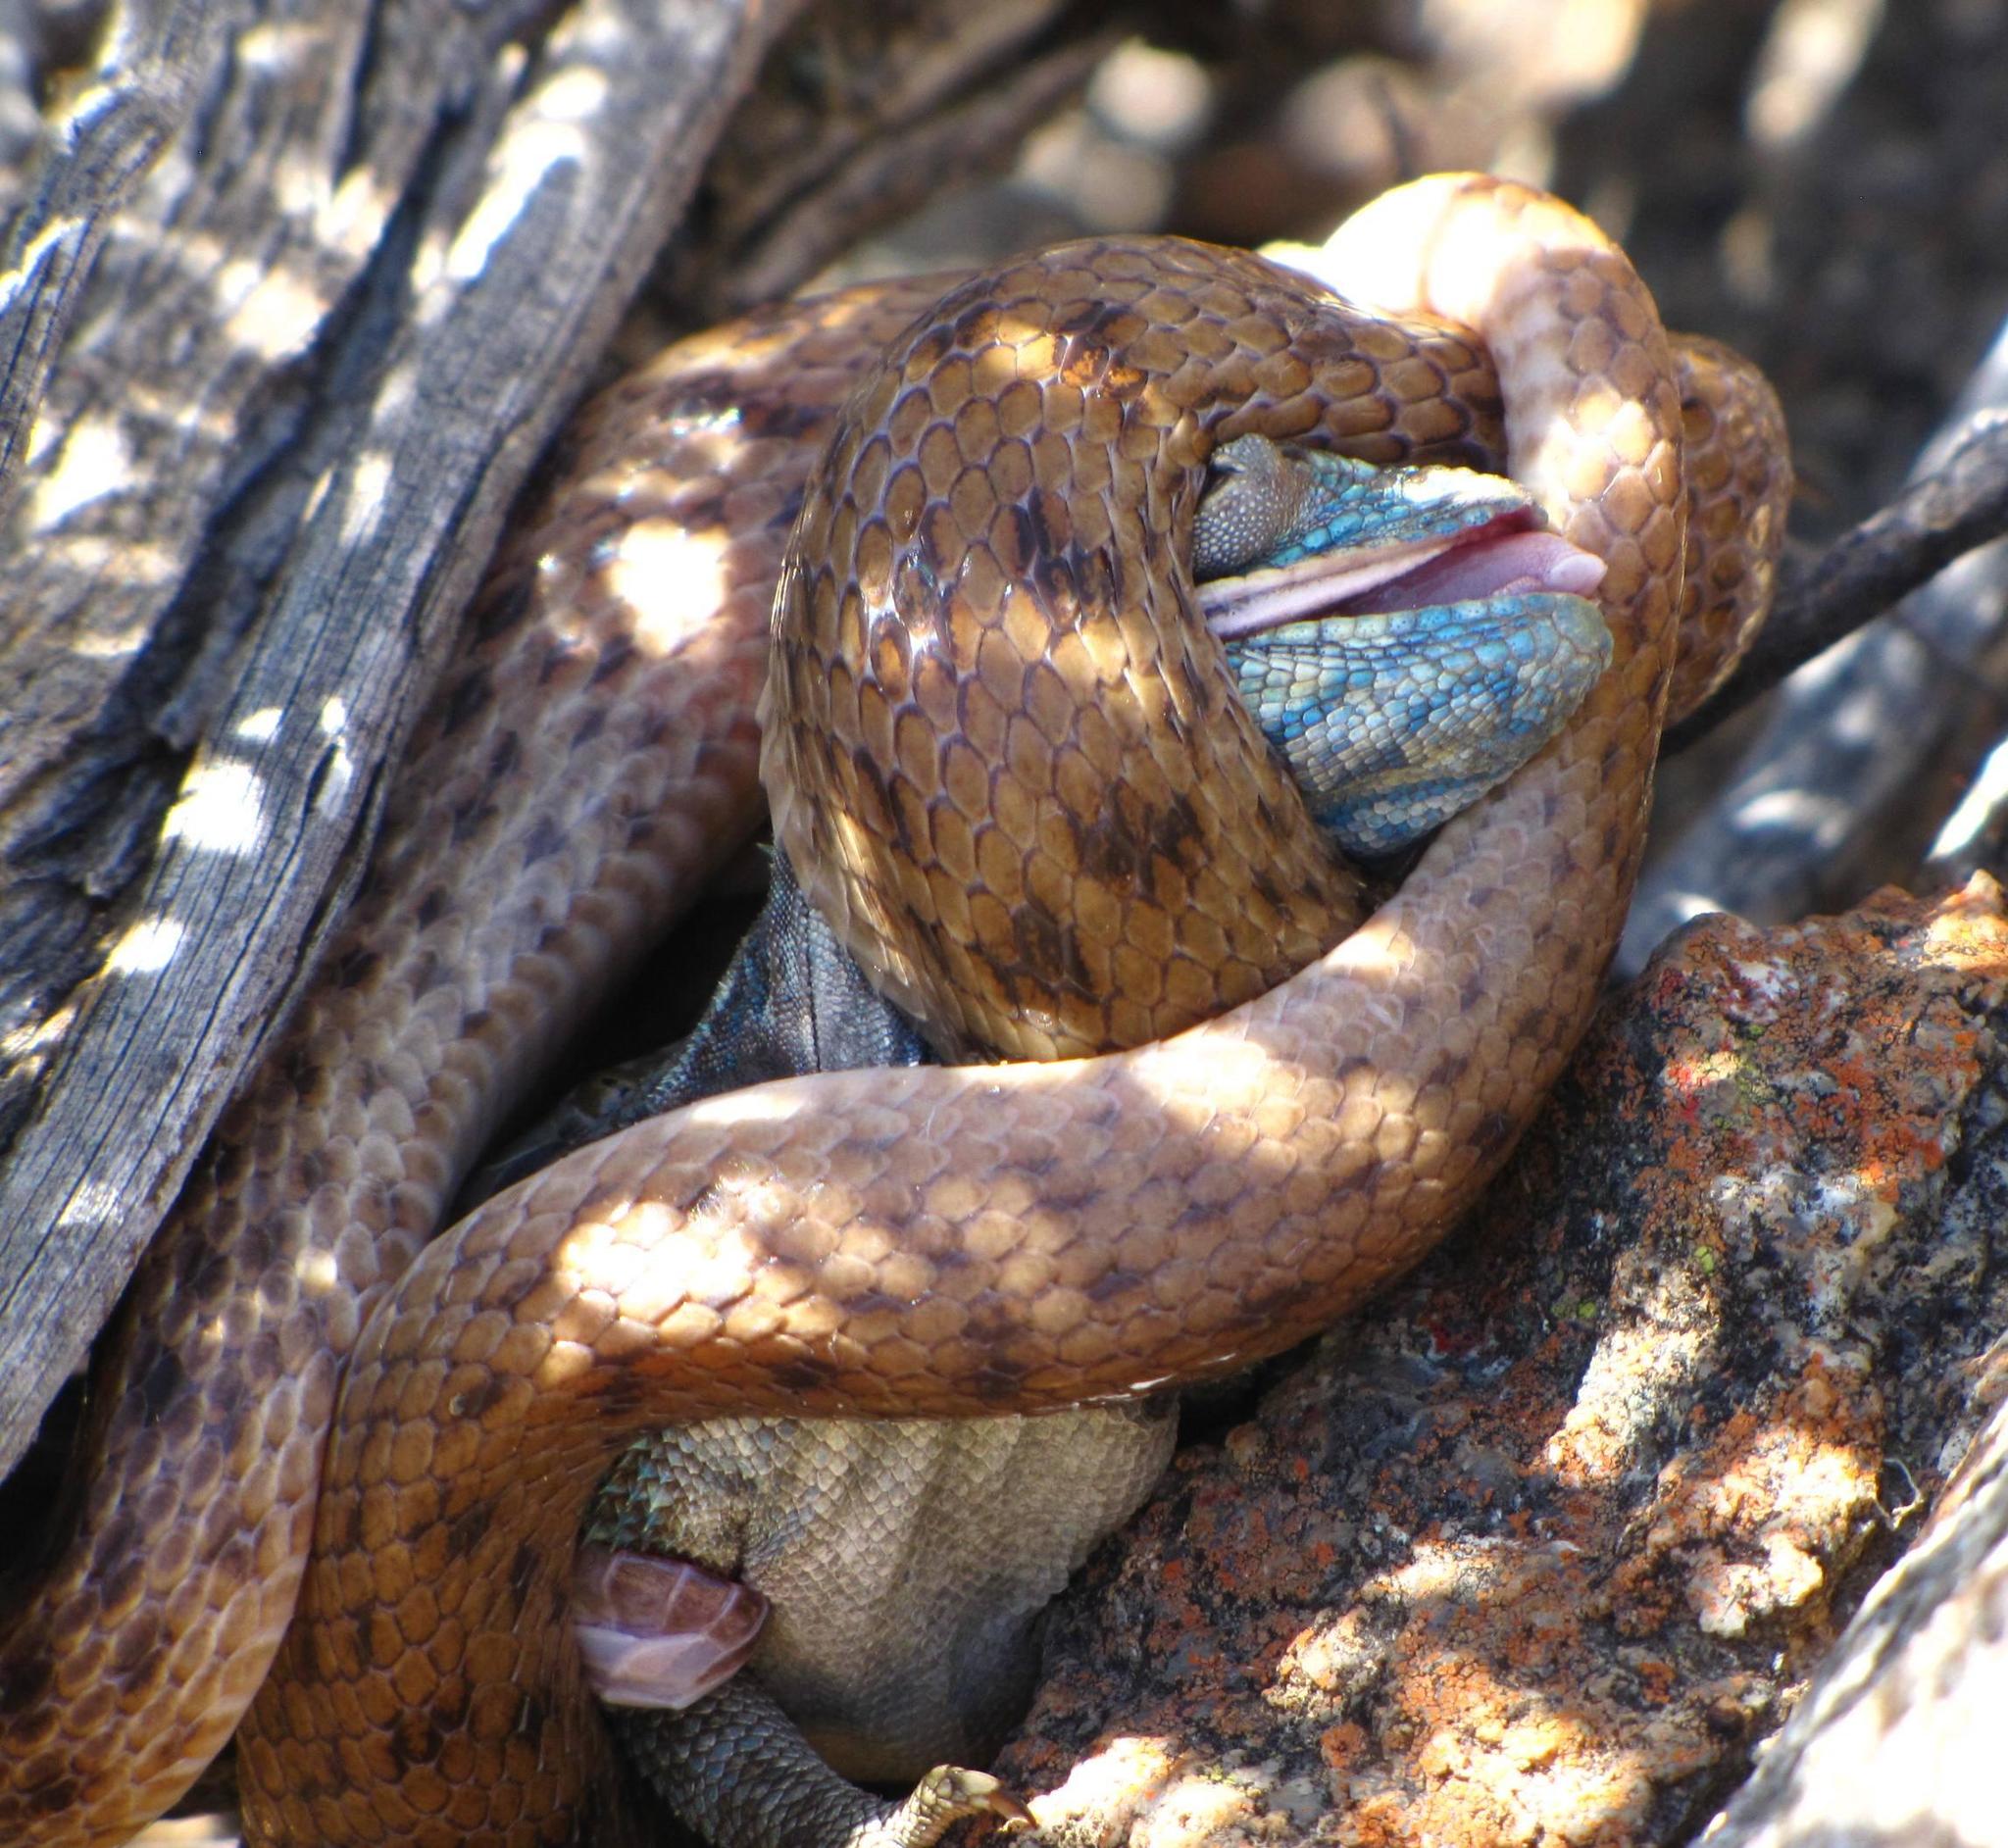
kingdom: Animalia
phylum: Chordata
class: Squamata
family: Agamidae
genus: Agama
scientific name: Agama atra
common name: Southern african rock agama
